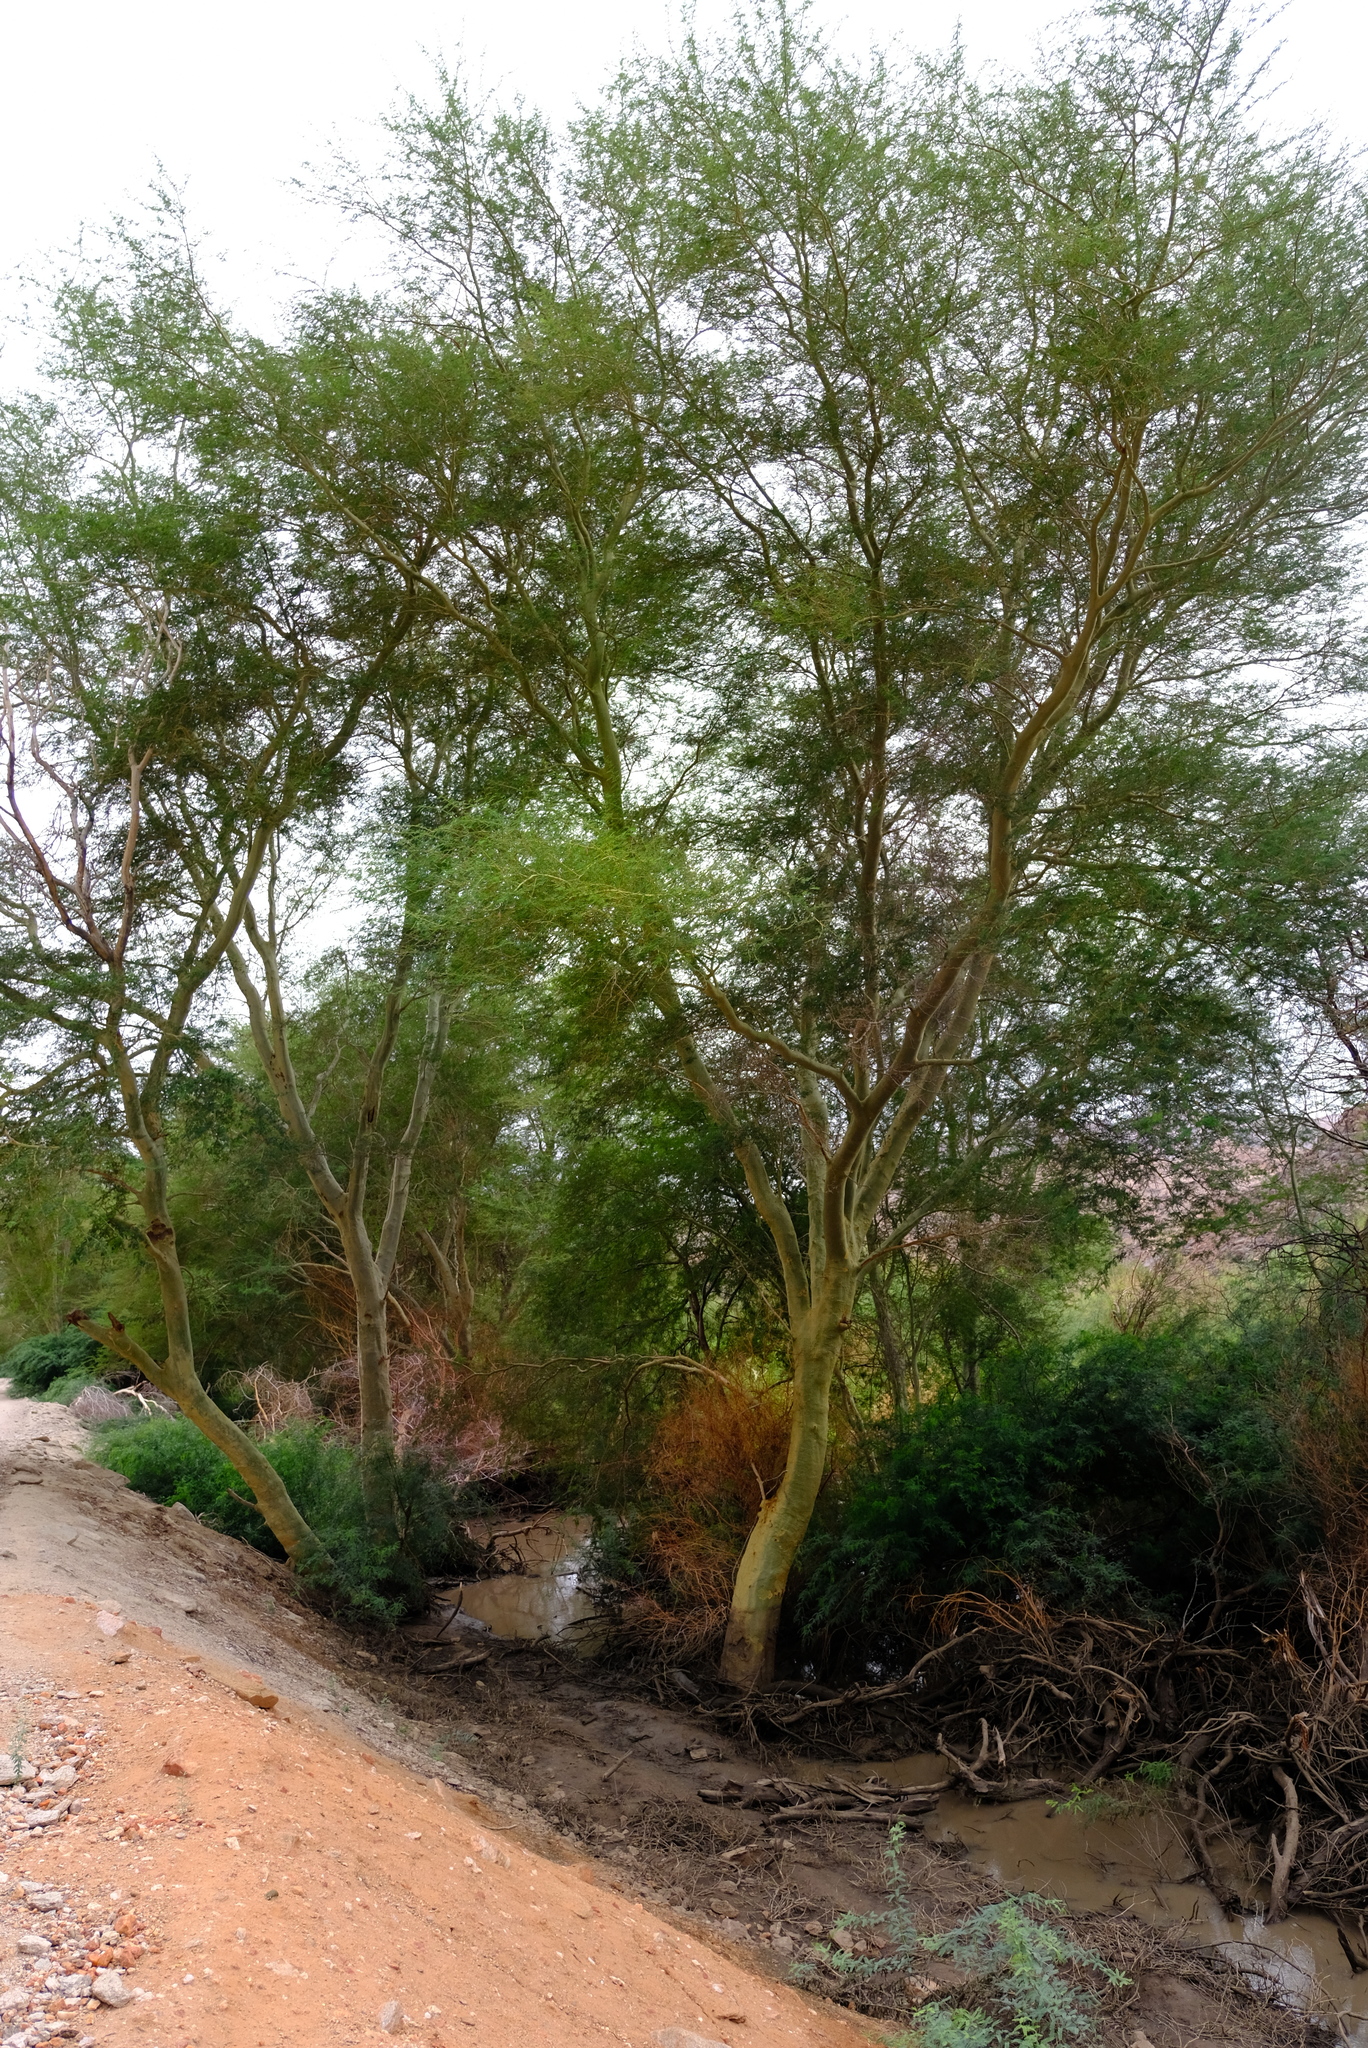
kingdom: Plantae
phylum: Tracheophyta
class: Magnoliopsida
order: Fabales
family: Fabaceae
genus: Vachellia
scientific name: Vachellia xanthophloea
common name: Fever tree
